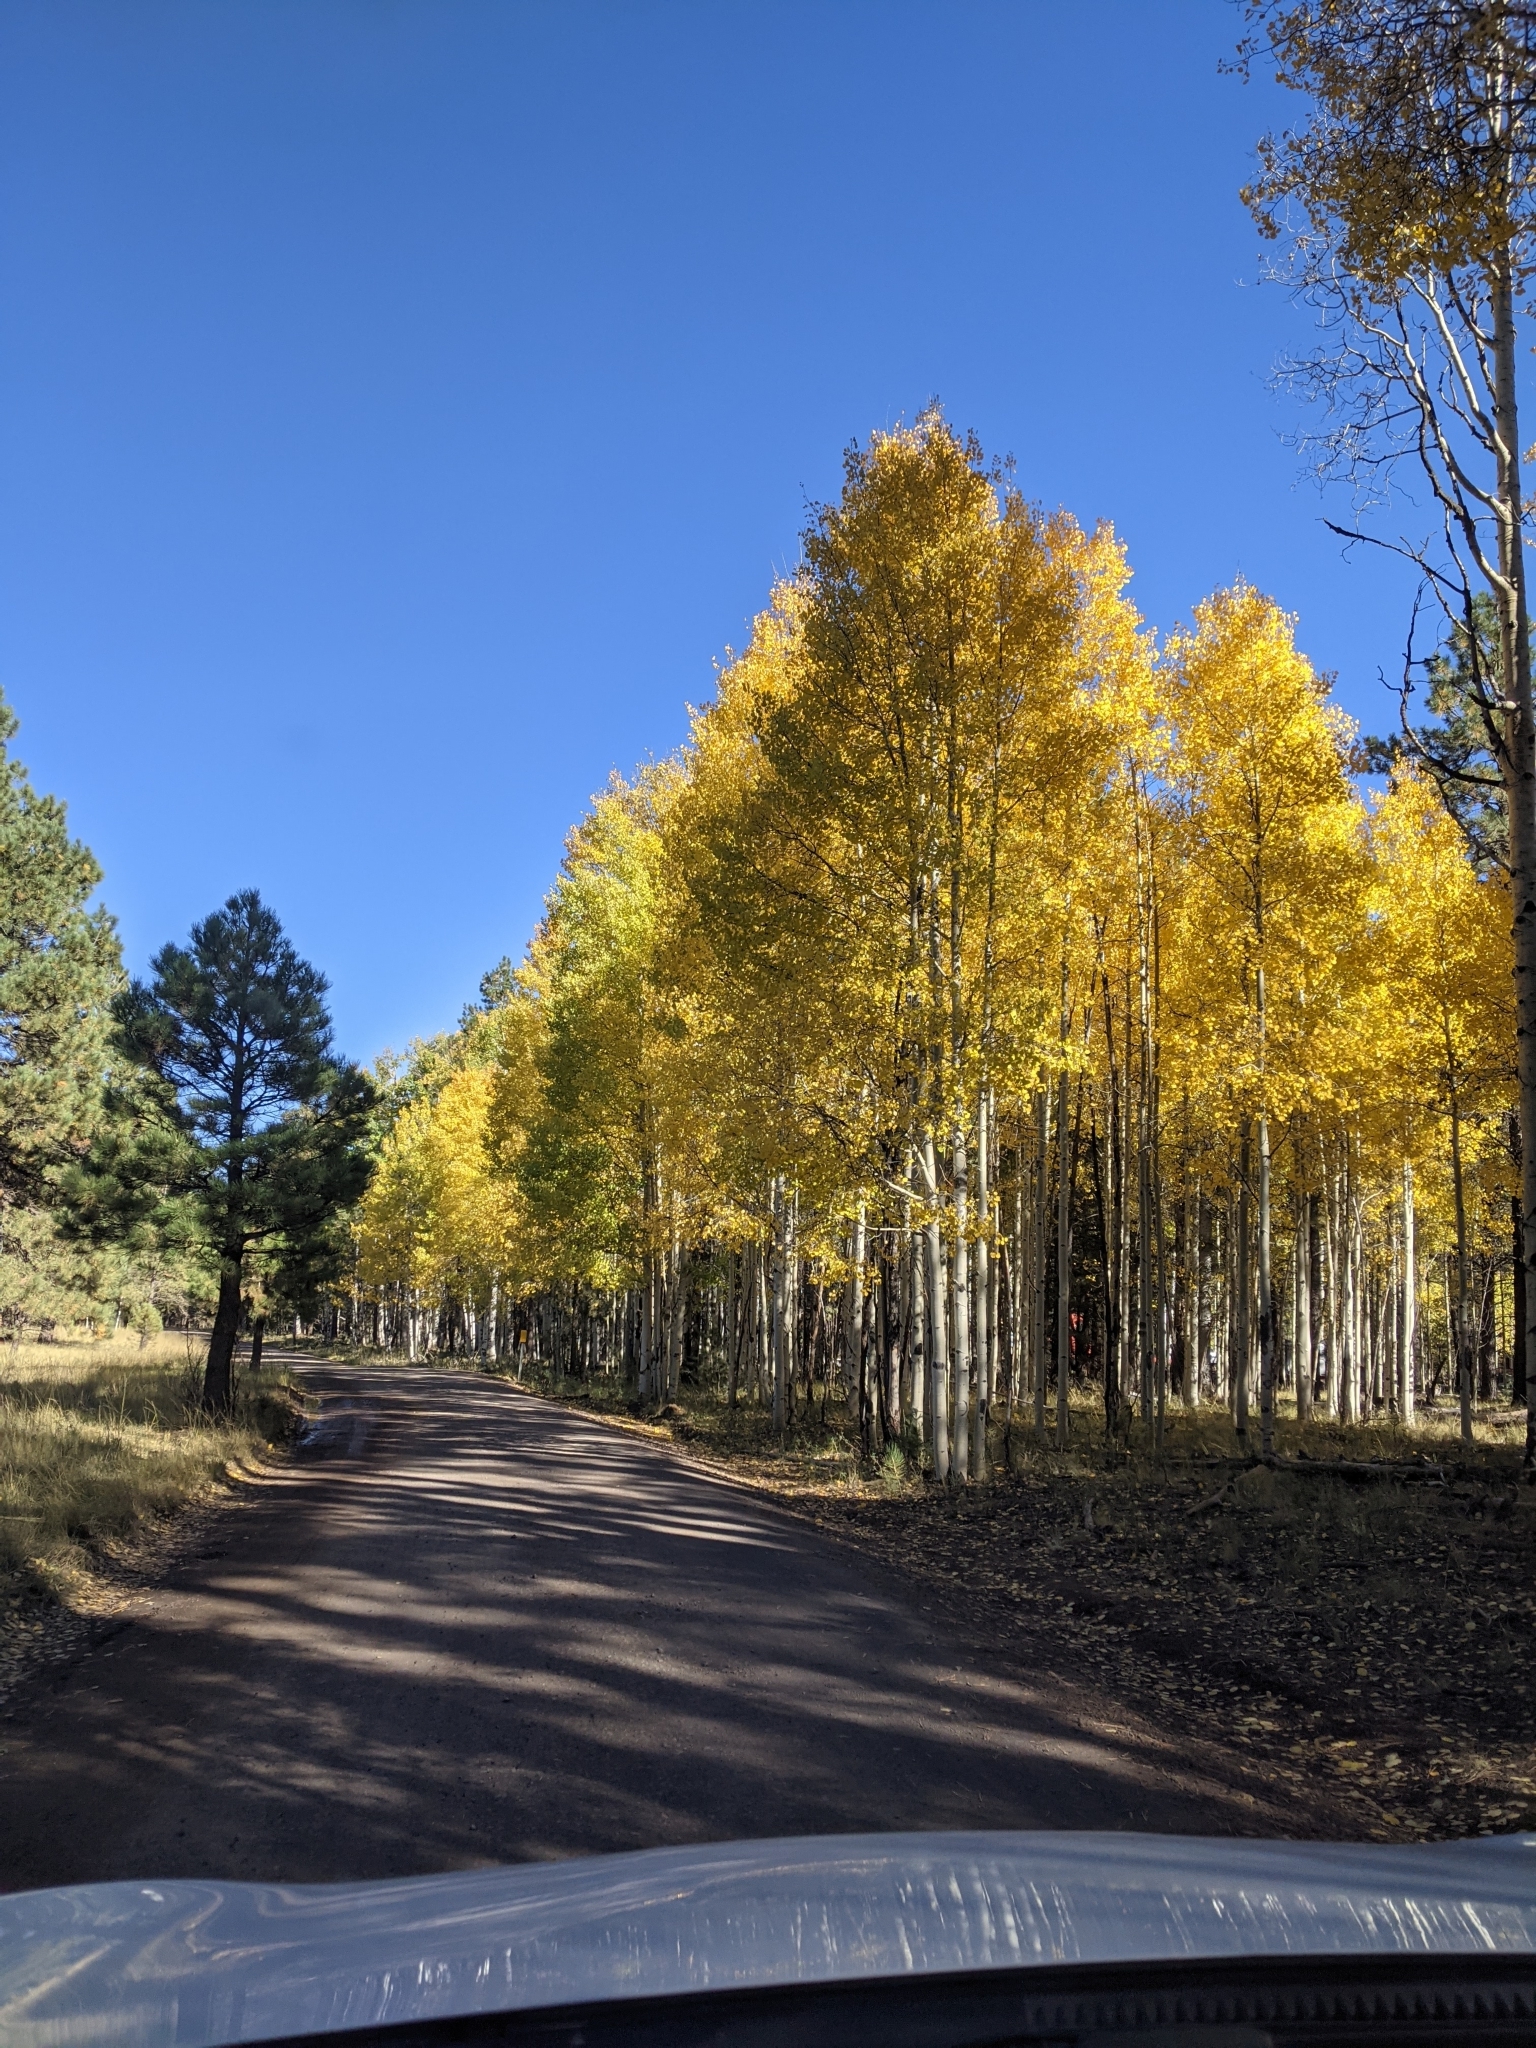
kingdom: Plantae
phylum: Tracheophyta
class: Magnoliopsida
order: Malpighiales
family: Salicaceae
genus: Populus
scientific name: Populus tremuloides
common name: Quaking aspen
